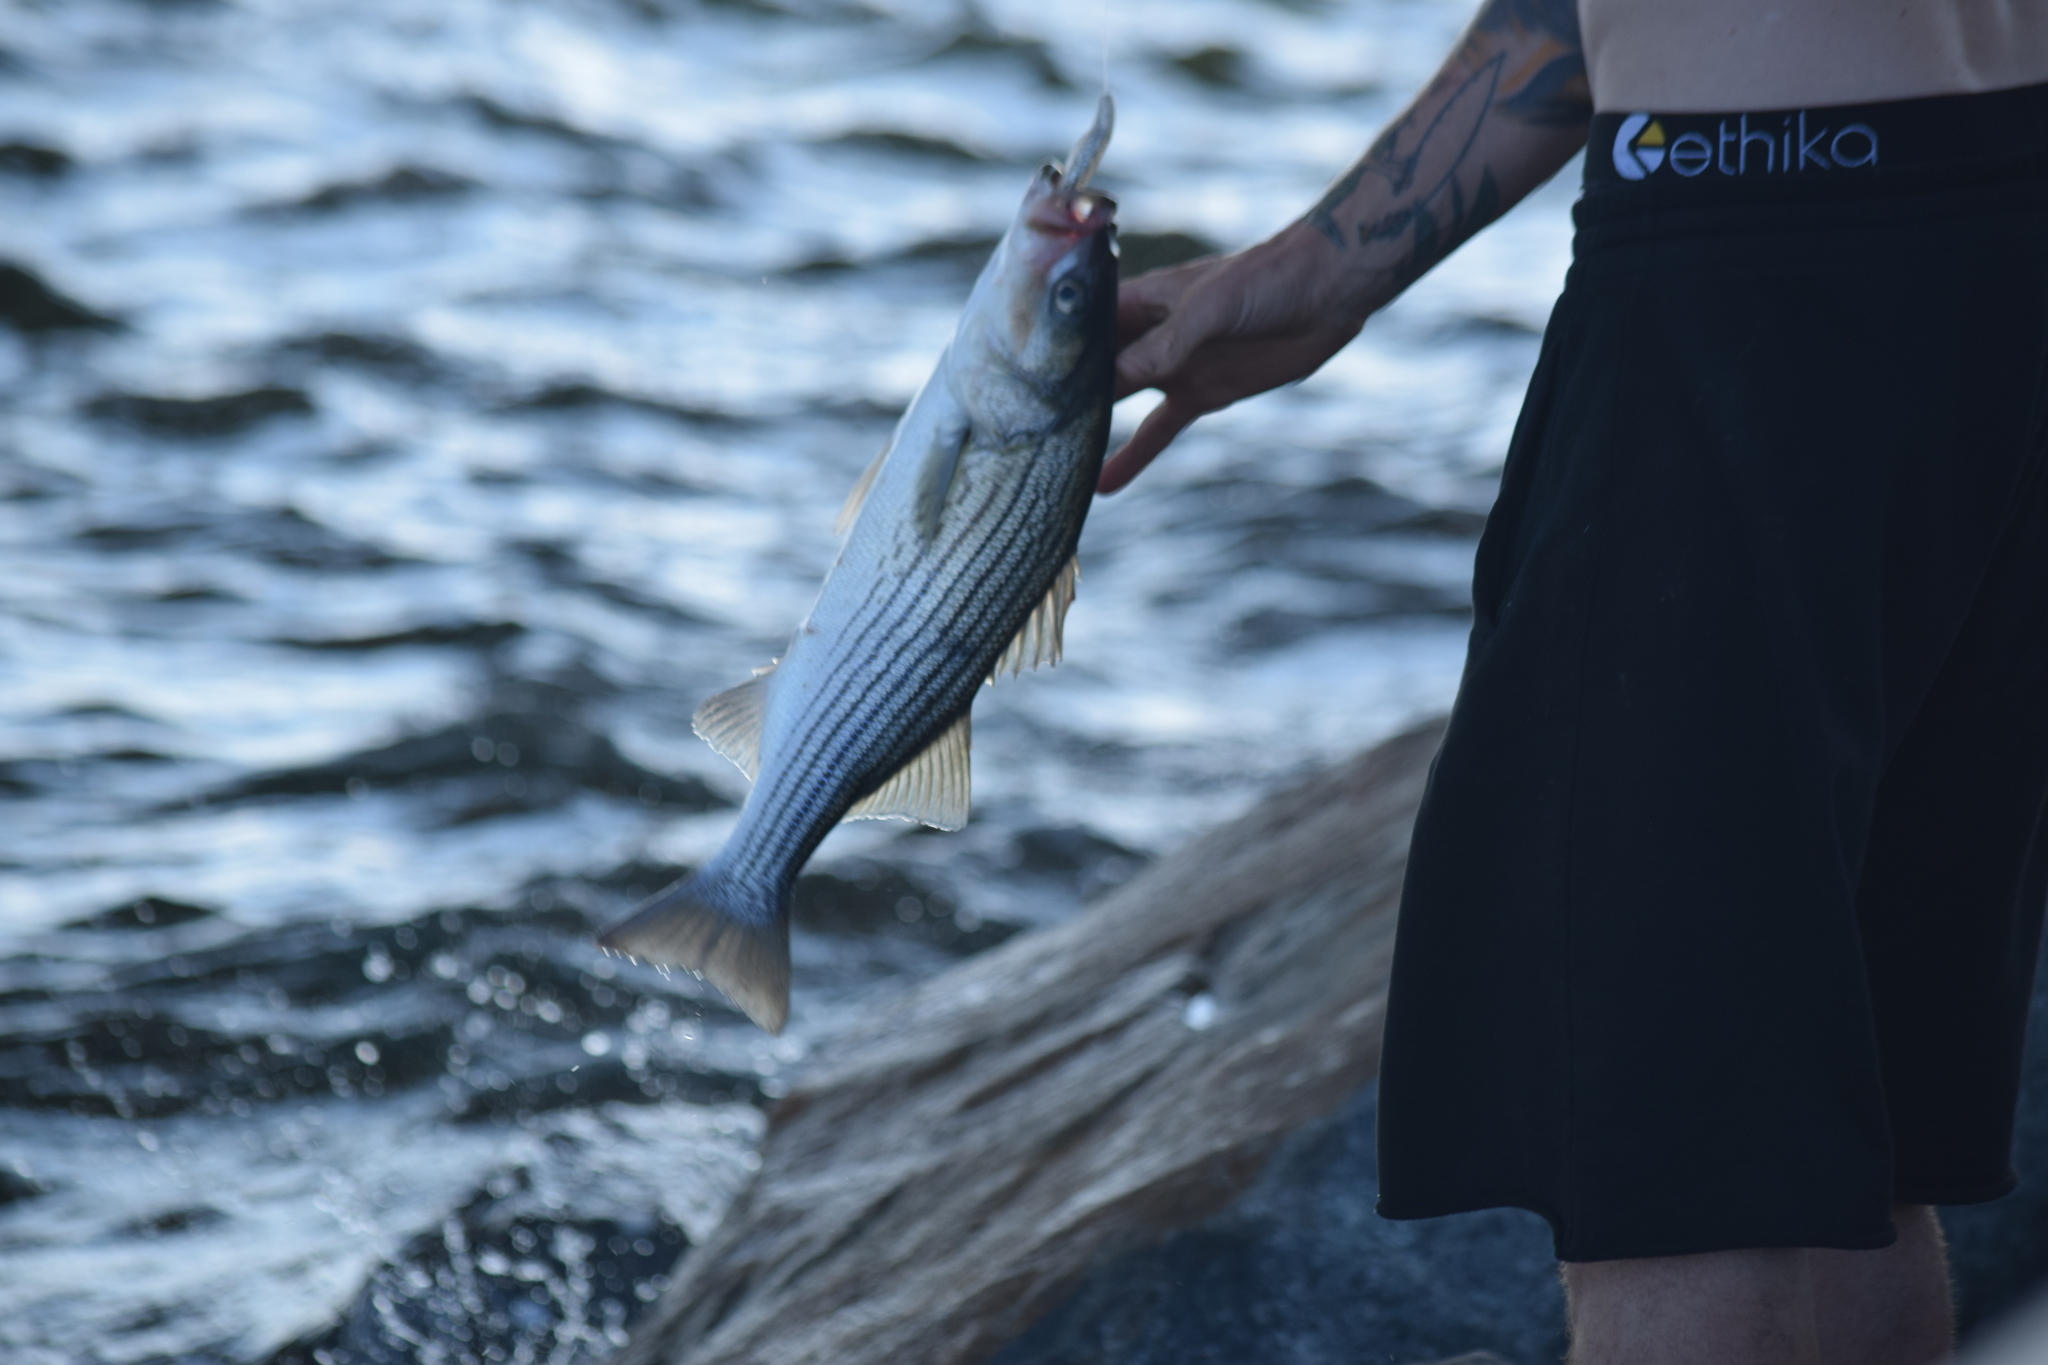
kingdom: Animalia
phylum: Chordata
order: Perciformes
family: Moronidae
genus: Morone
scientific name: Morone saxatilis
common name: Striped bass
